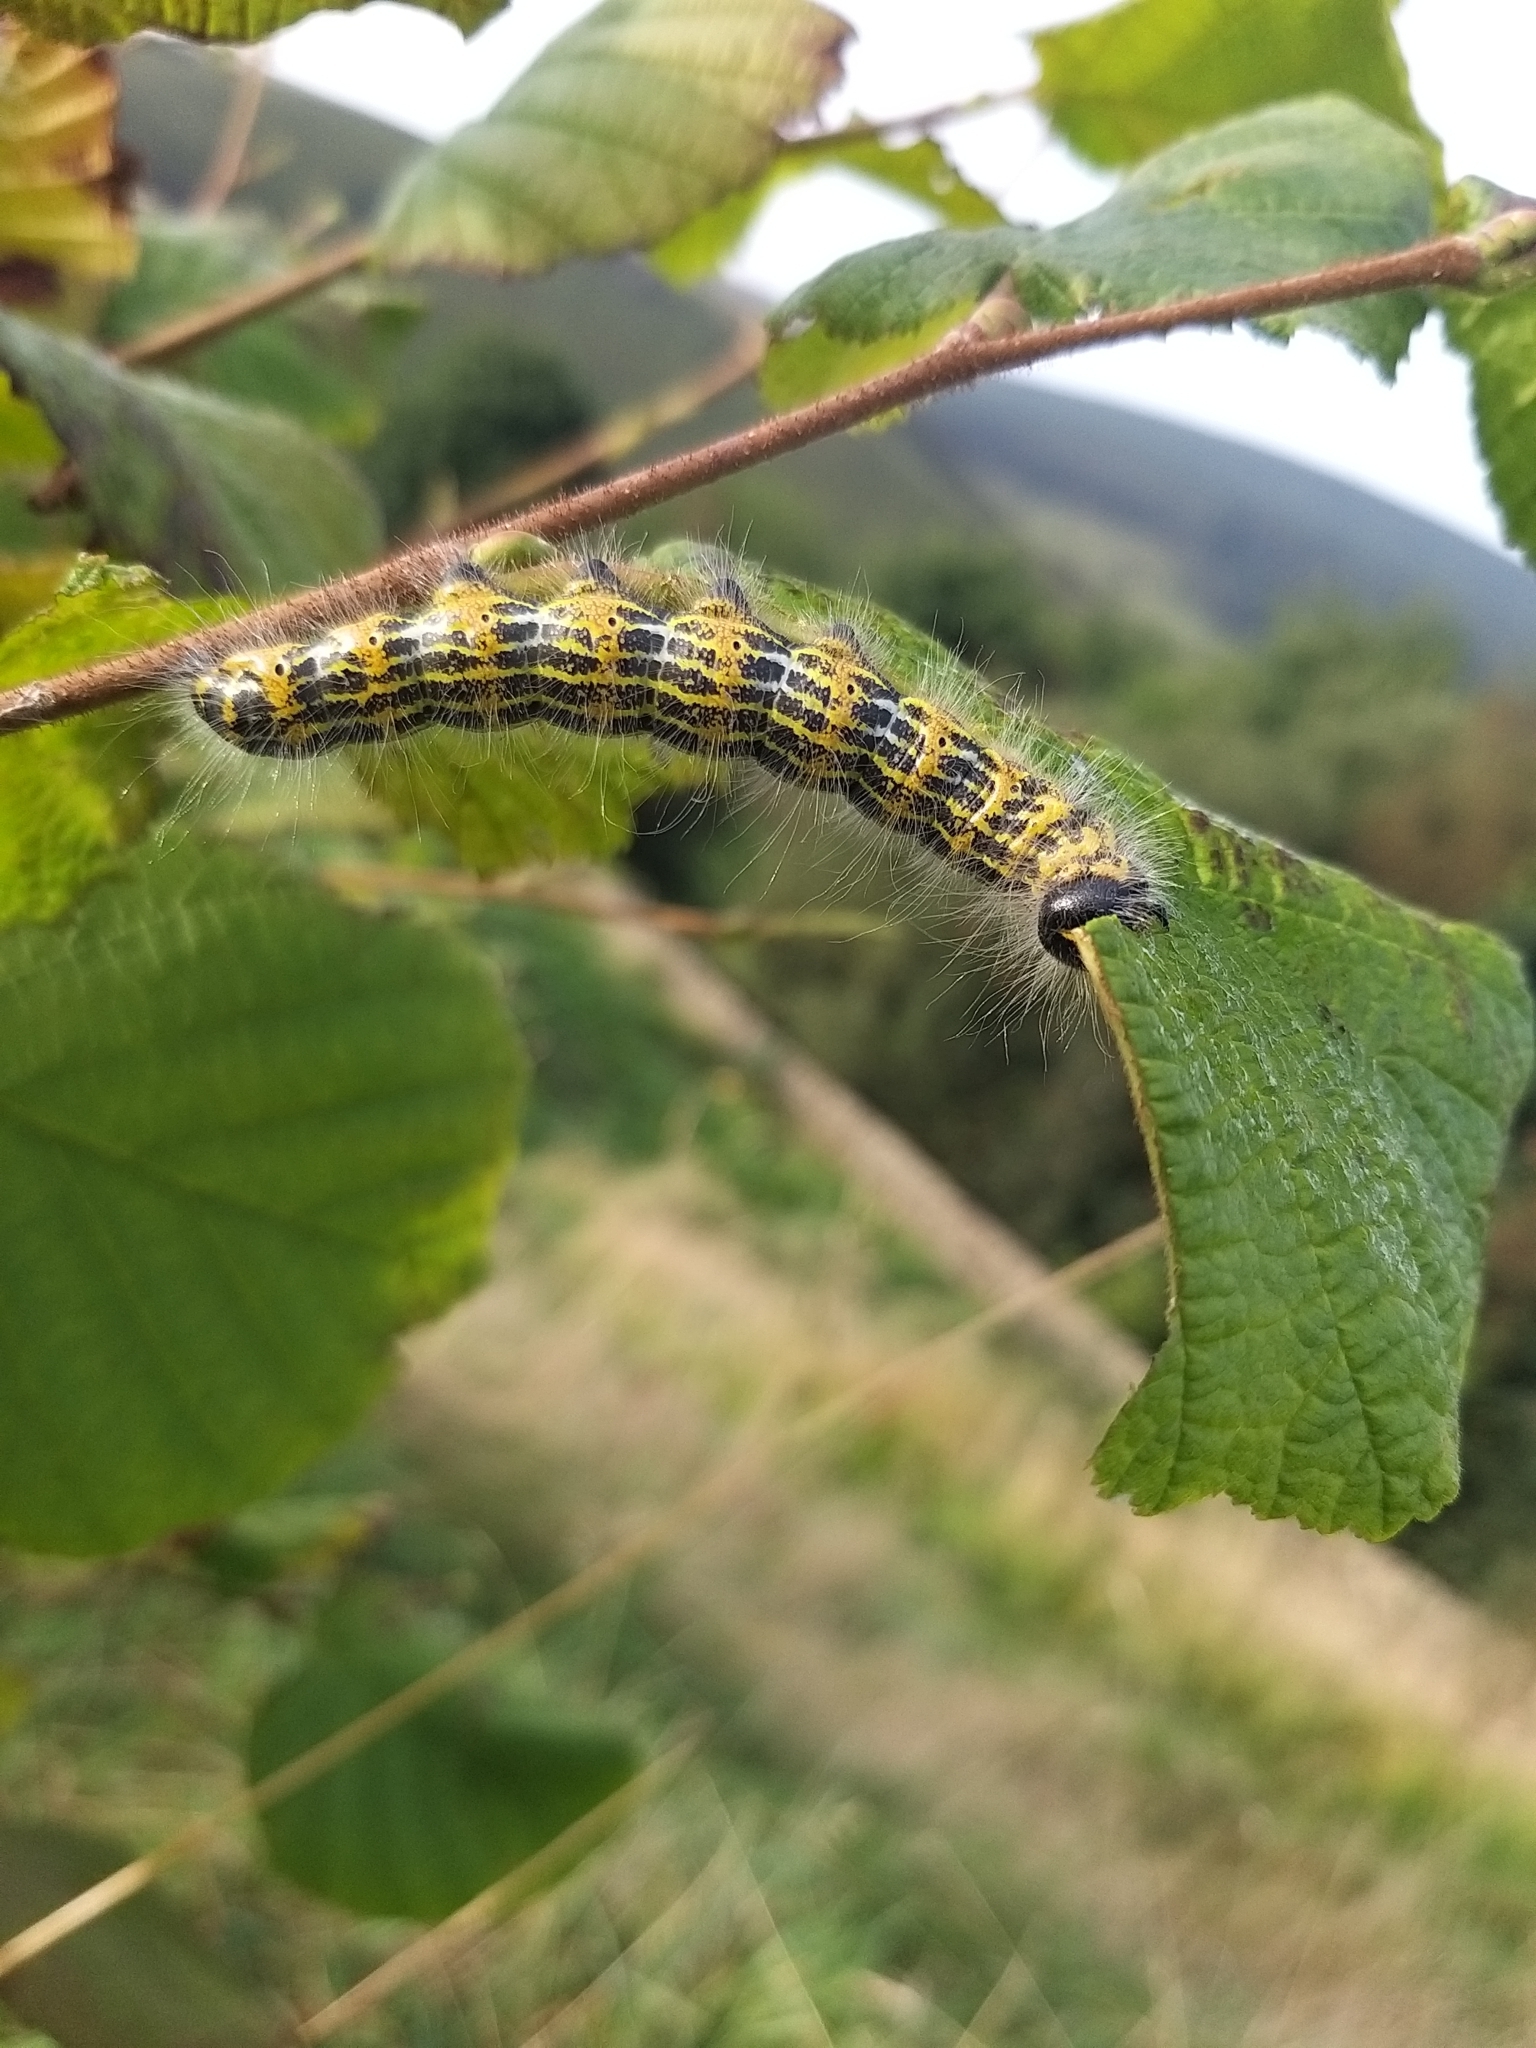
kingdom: Animalia
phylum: Arthropoda
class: Insecta
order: Lepidoptera
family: Notodontidae
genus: Phalera
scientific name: Phalera bucephala
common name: Buff-tip
